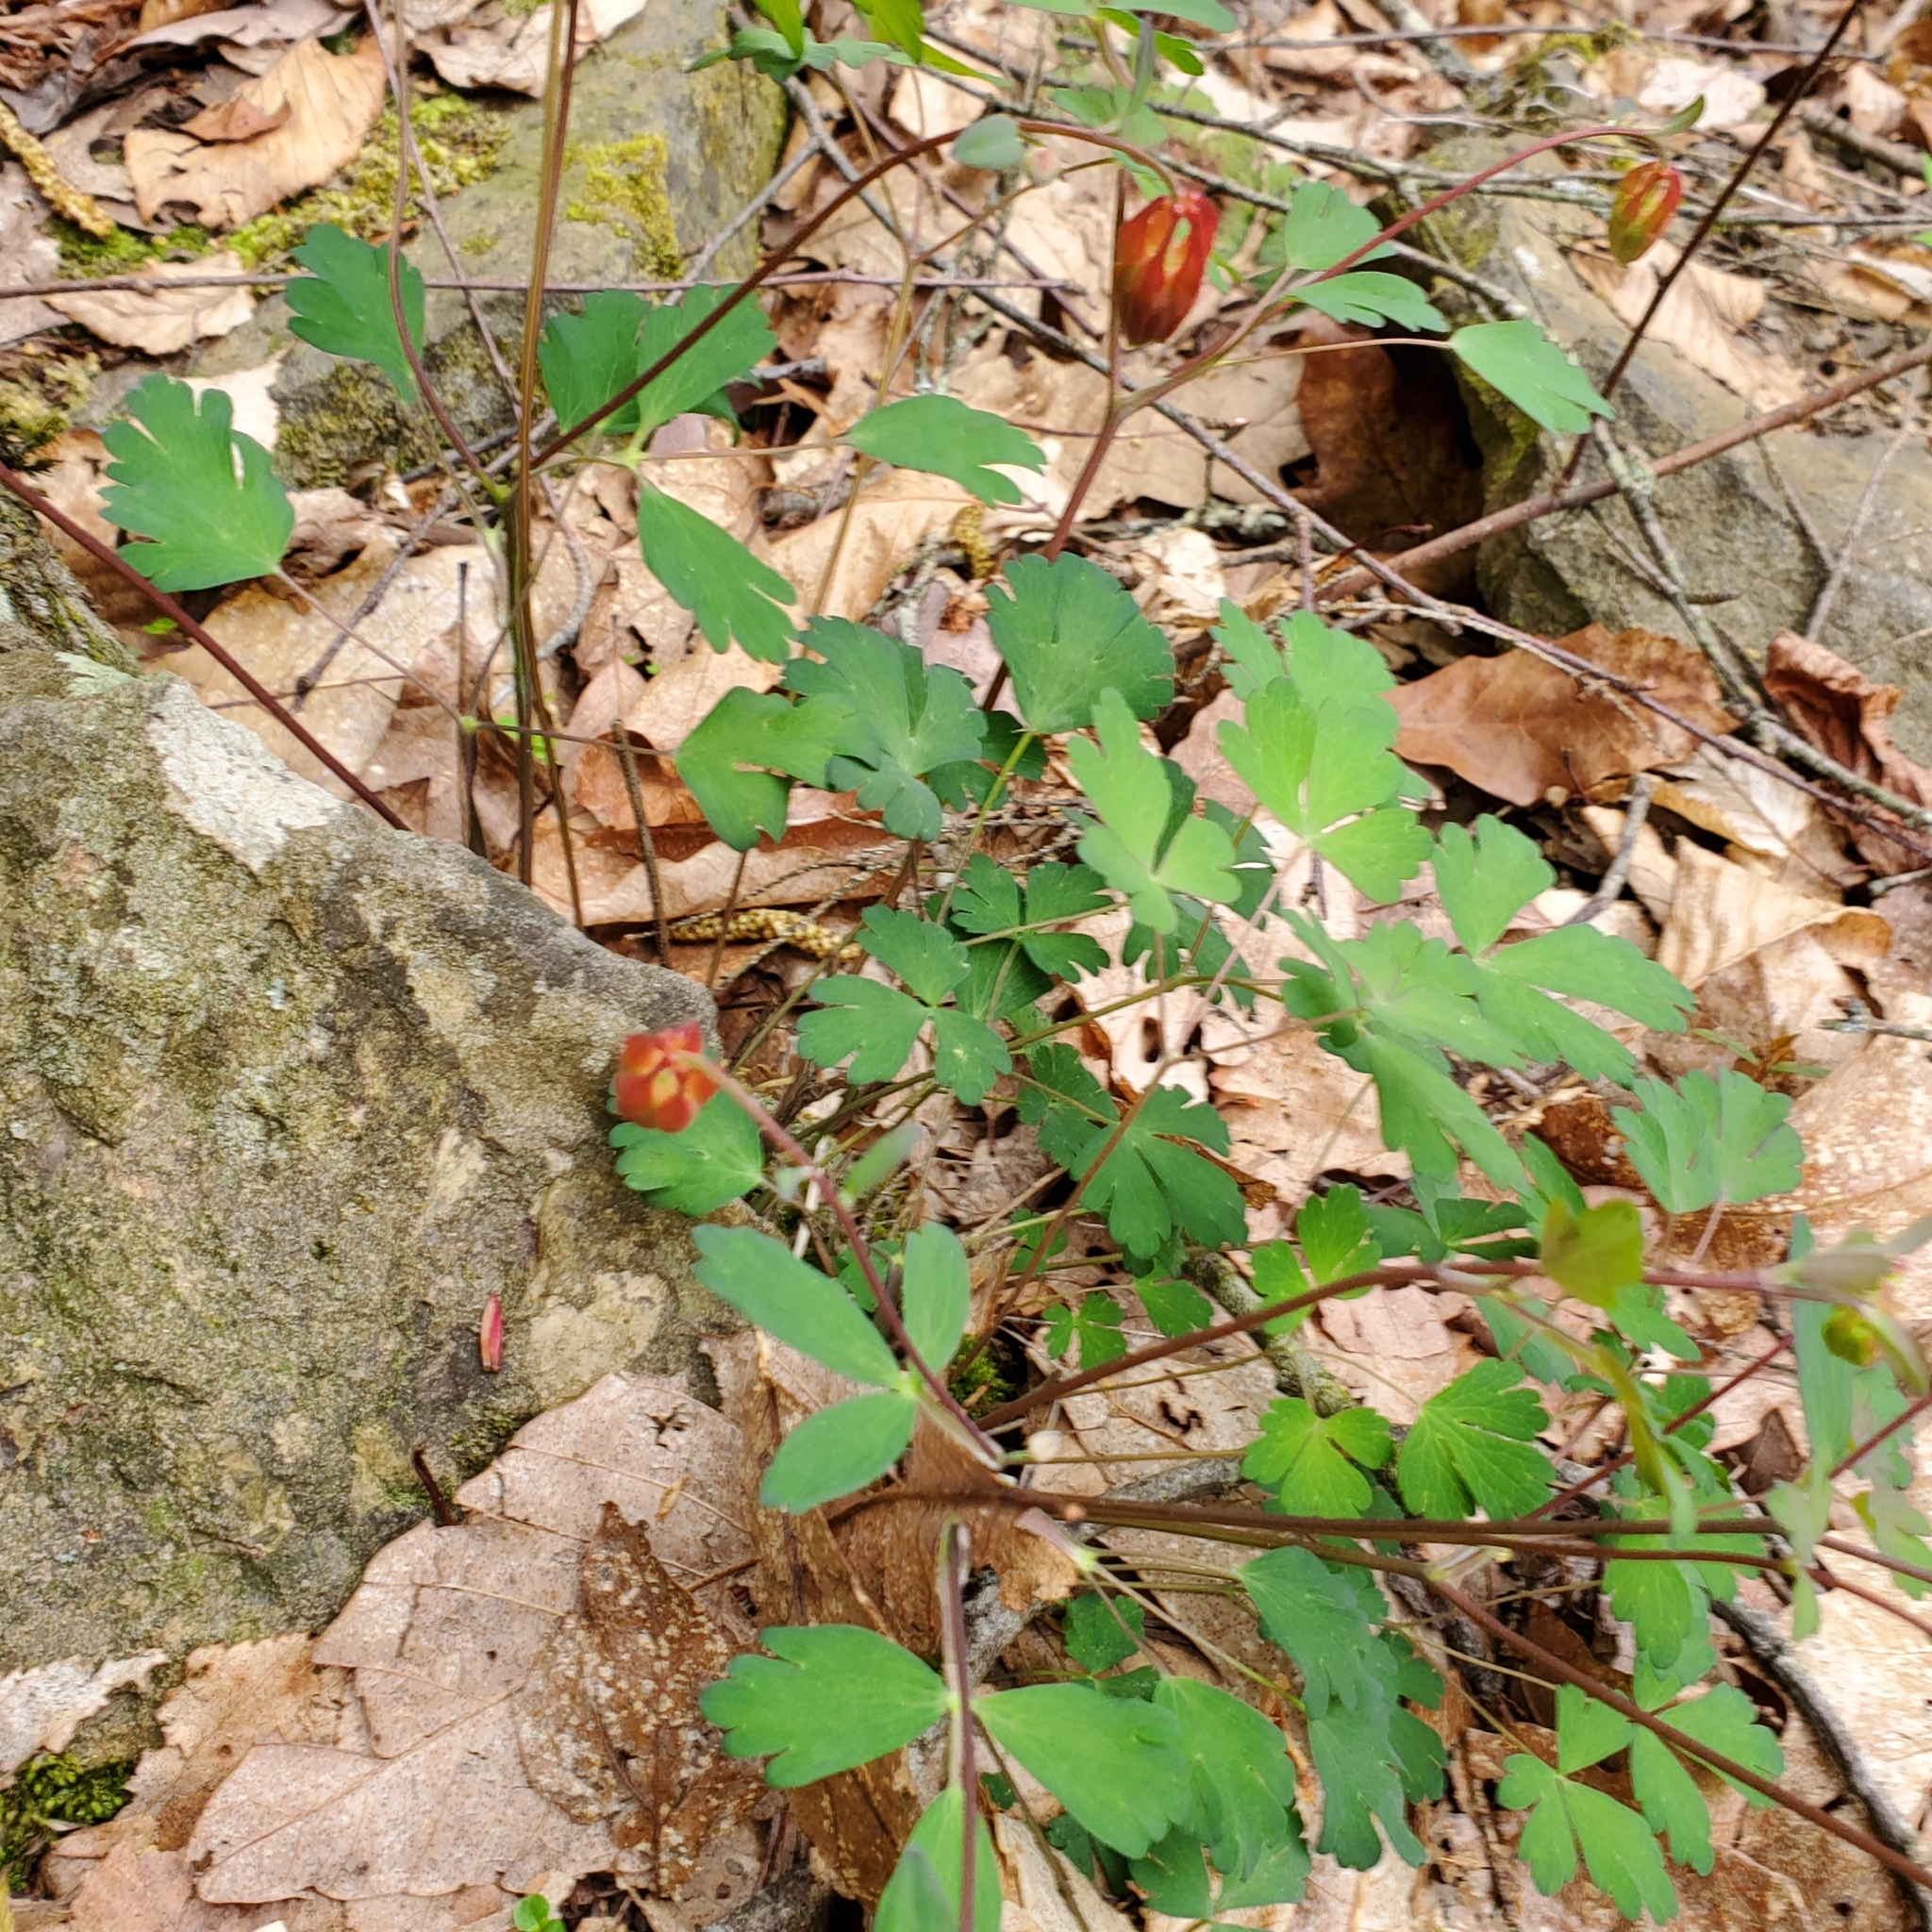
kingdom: Plantae
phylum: Tracheophyta
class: Magnoliopsida
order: Ranunculales
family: Ranunculaceae
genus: Aquilegia
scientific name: Aquilegia canadensis
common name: American columbine
